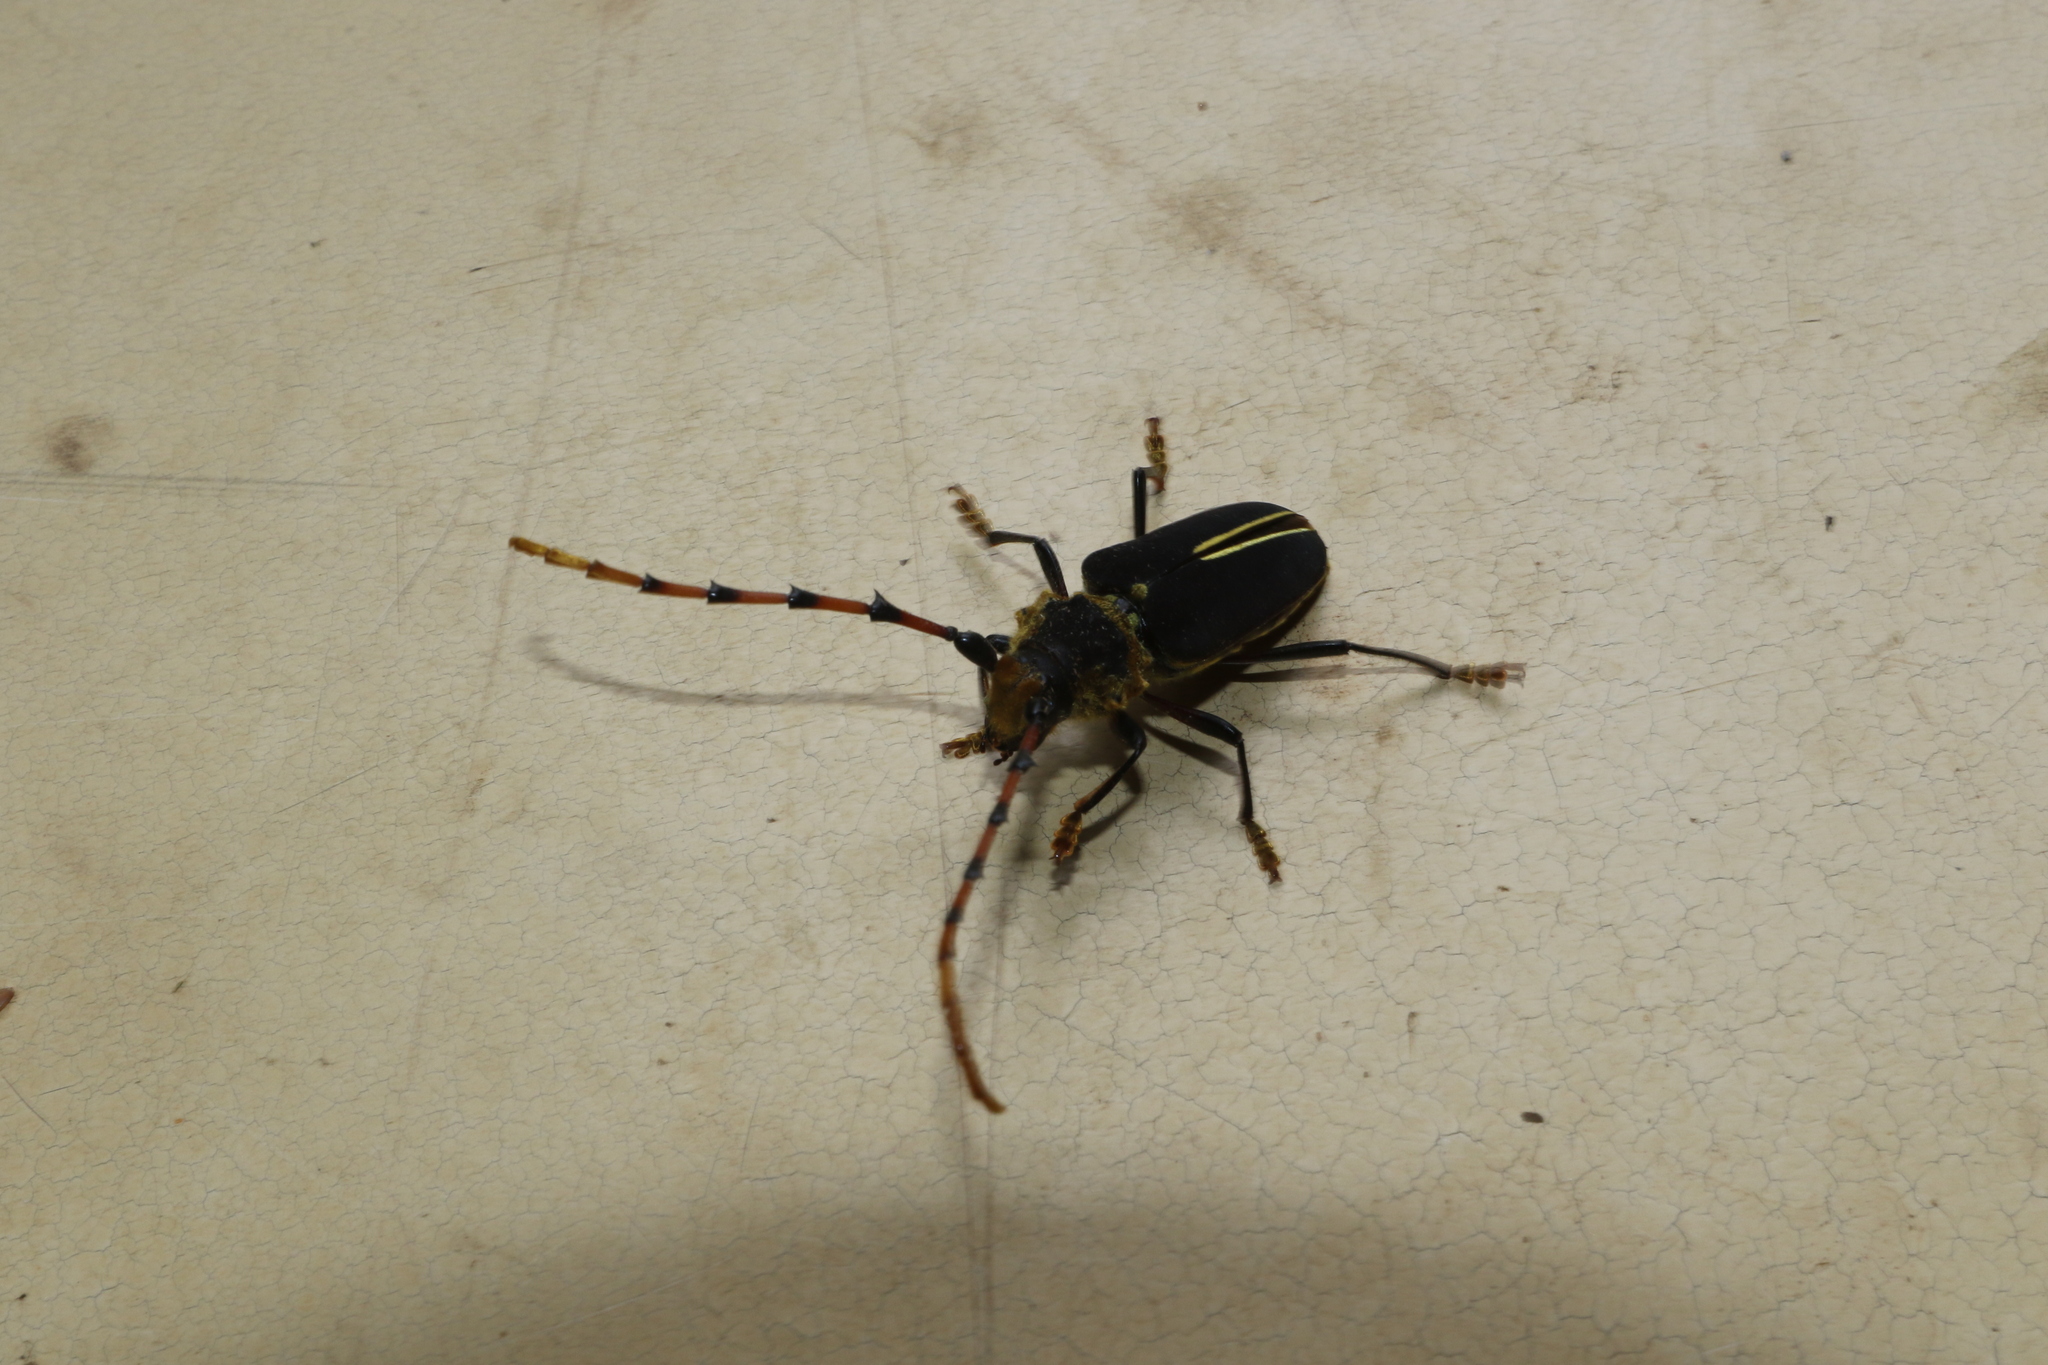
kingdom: Animalia
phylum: Arthropoda
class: Insecta
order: Coleoptera
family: Cerambycidae
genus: Dorcacerus
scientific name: Dorcacerus barbatus
